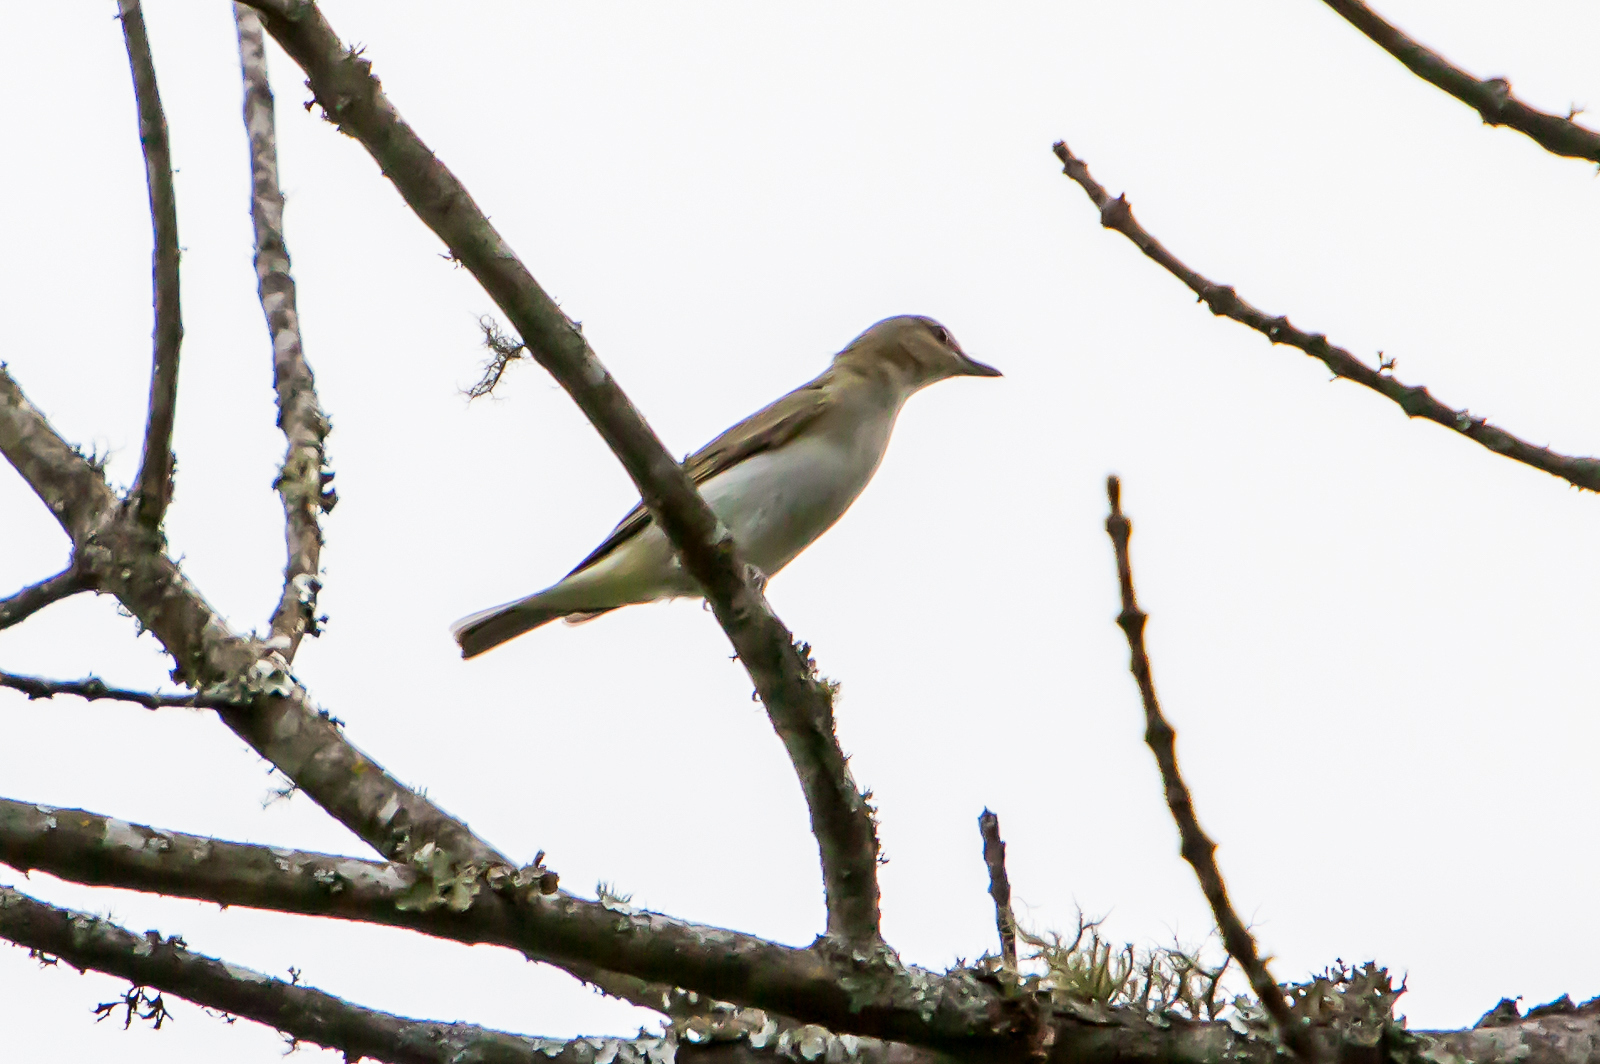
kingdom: Animalia
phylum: Chordata
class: Aves
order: Passeriformes
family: Vireonidae
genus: Vireo
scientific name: Vireo olivaceus
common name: Red-eyed vireo
